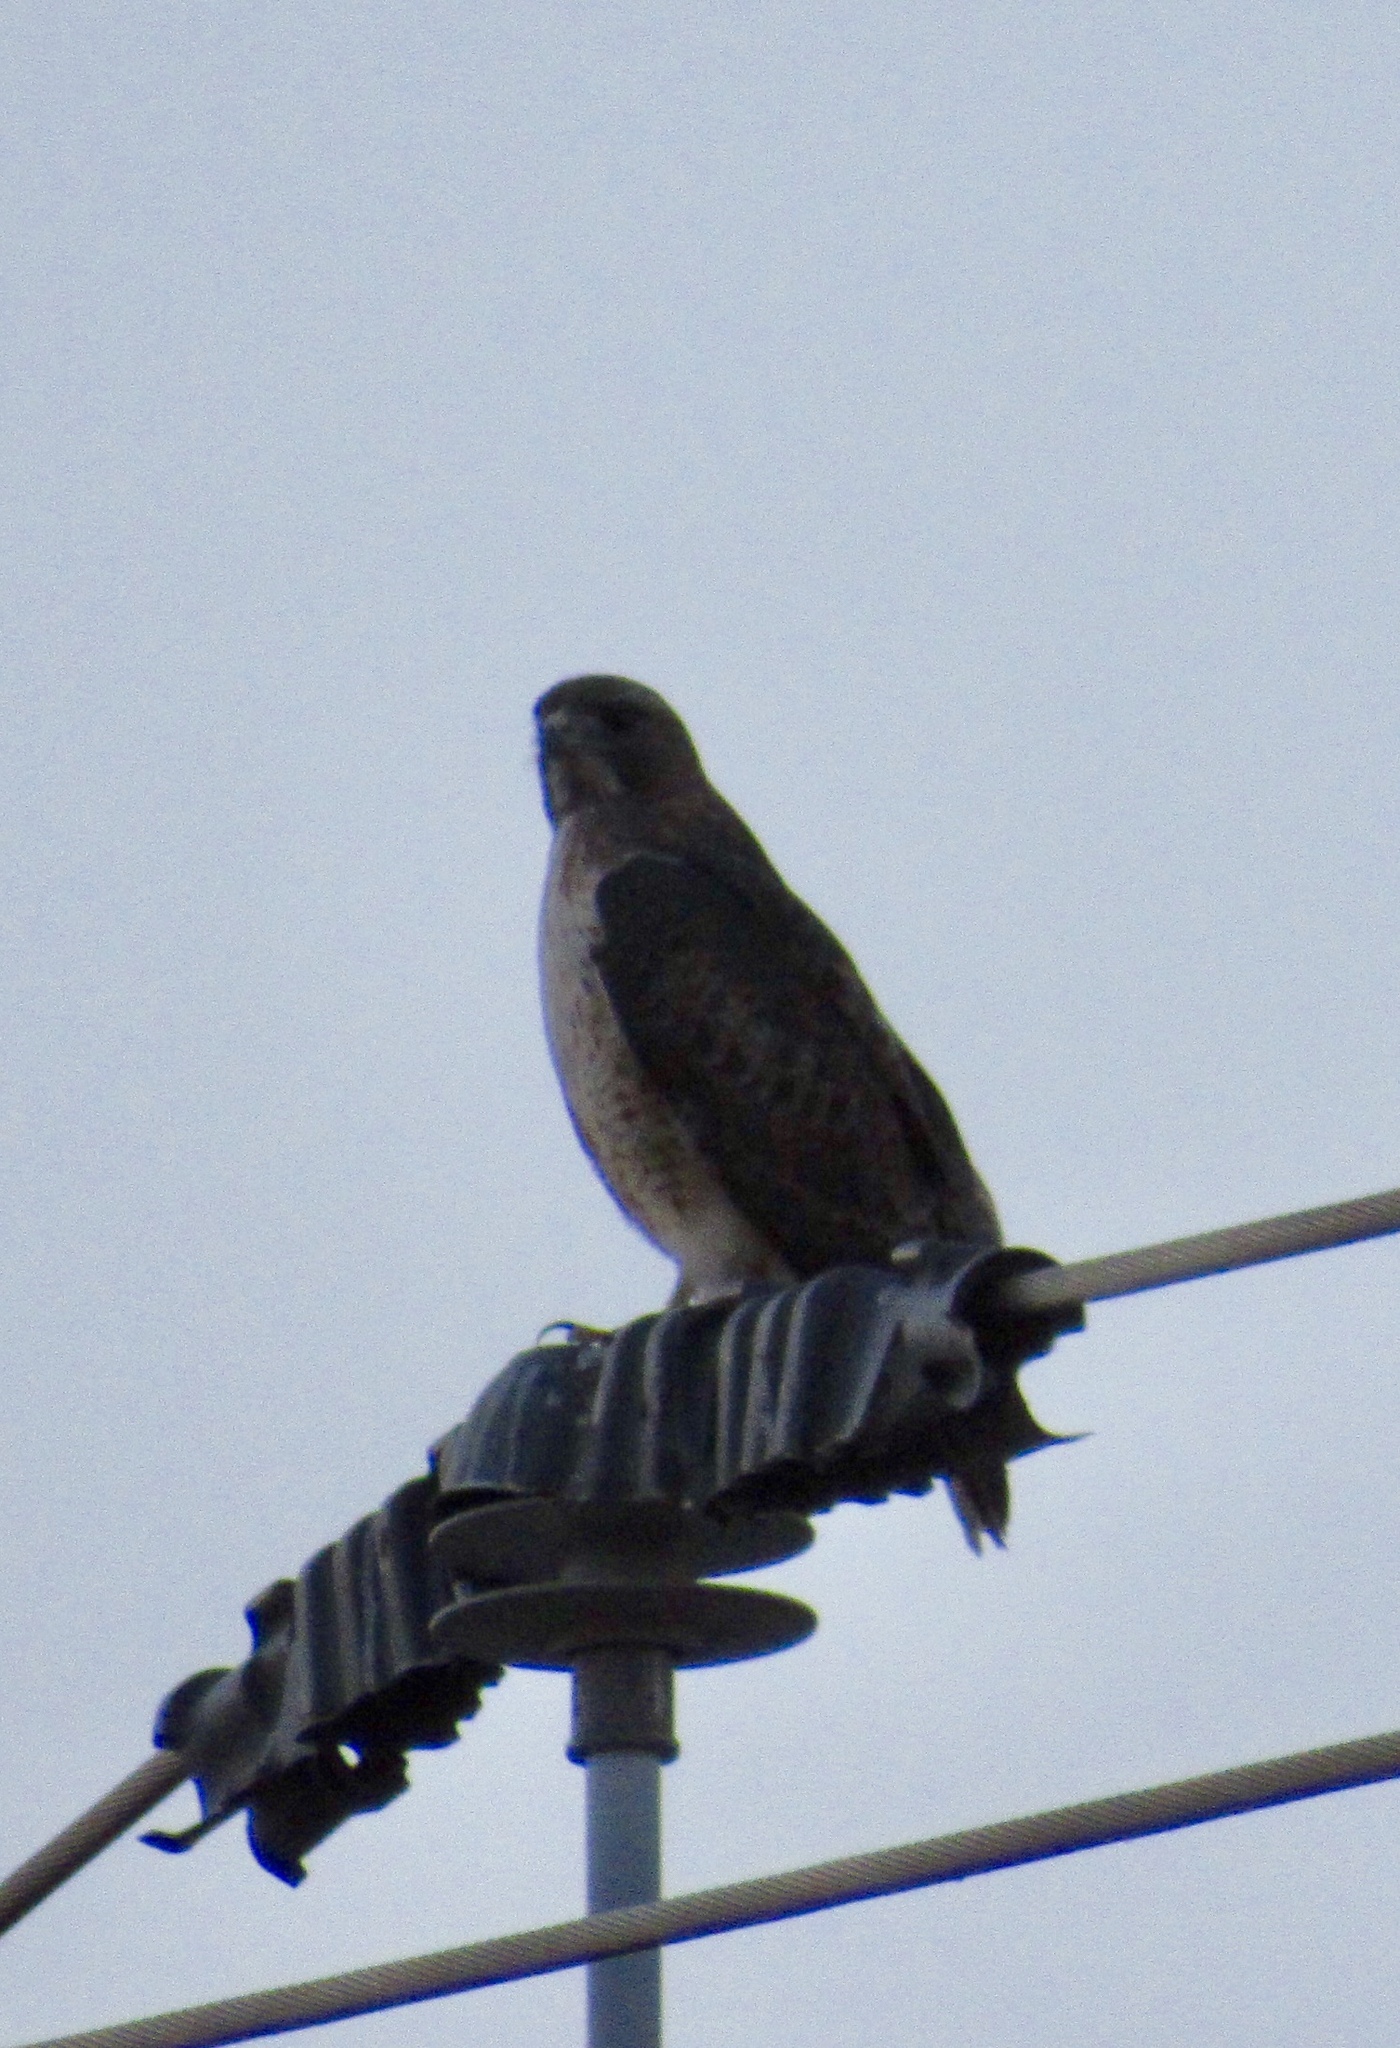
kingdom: Animalia
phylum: Chordata
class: Aves
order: Accipitriformes
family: Accipitridae
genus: Buteo
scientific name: Buteo jamaicensis
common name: Red-tailed hawk
